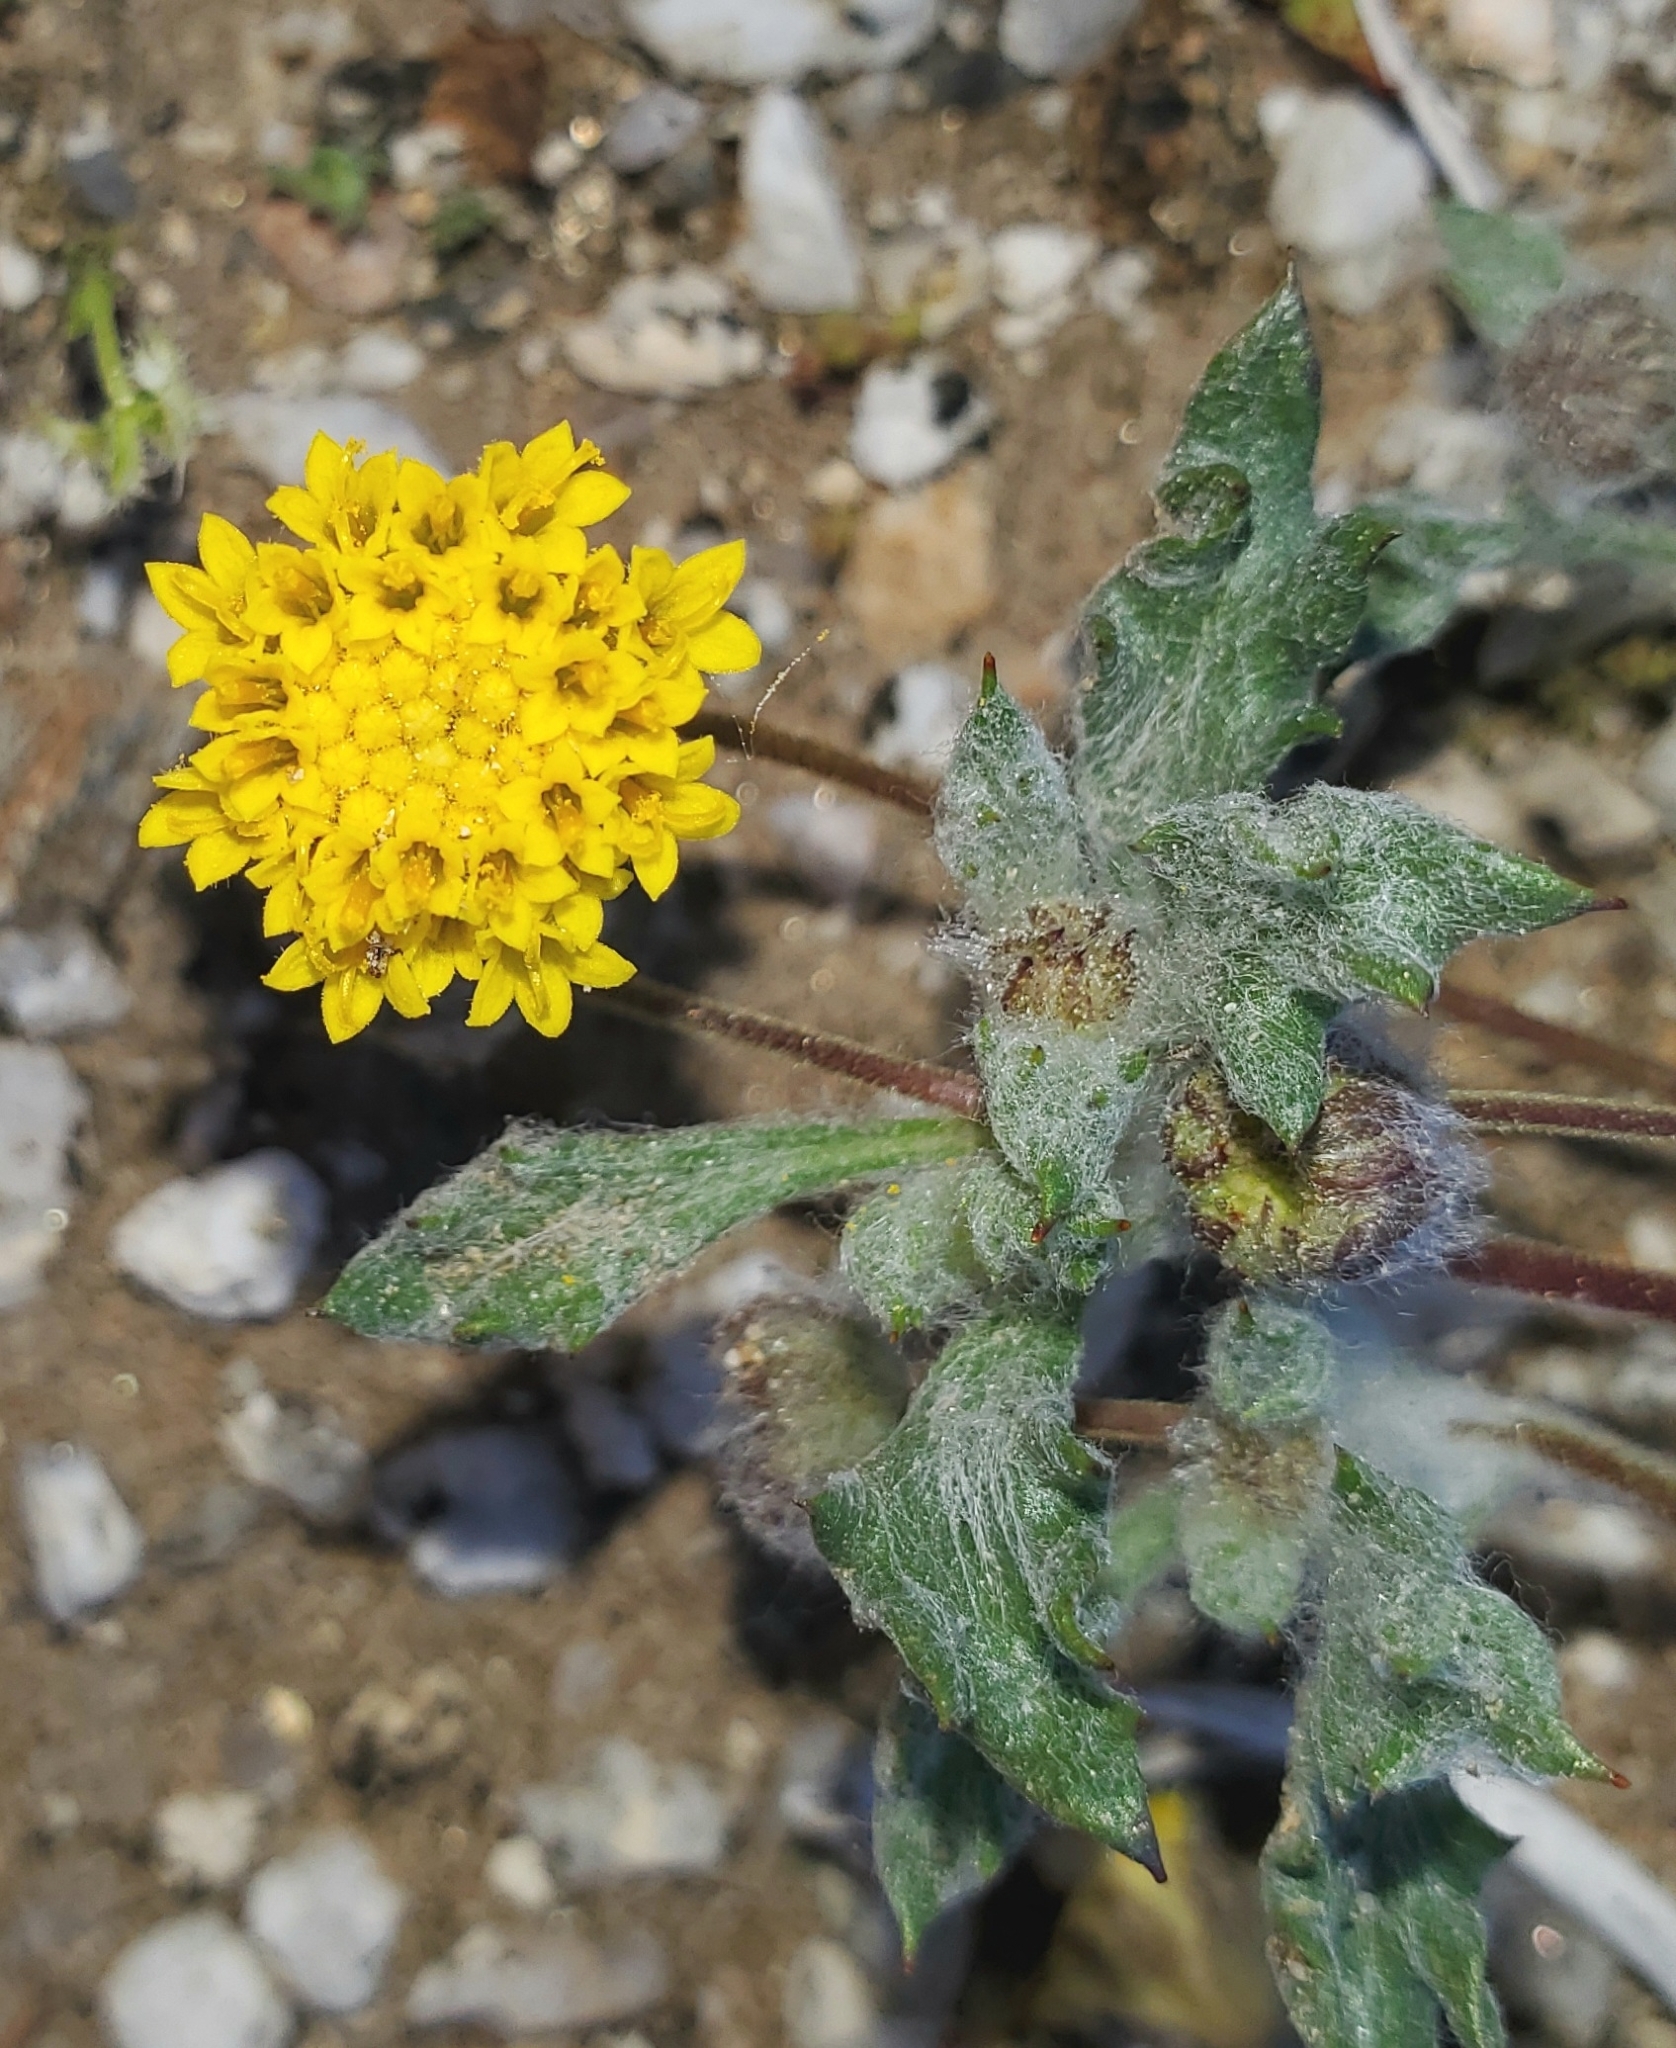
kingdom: Plantae
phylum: Tracheophyta
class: Magnoliopsida
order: Asterales
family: Asteraceae
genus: Trichoptilium
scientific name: Trichoptilium incisum
